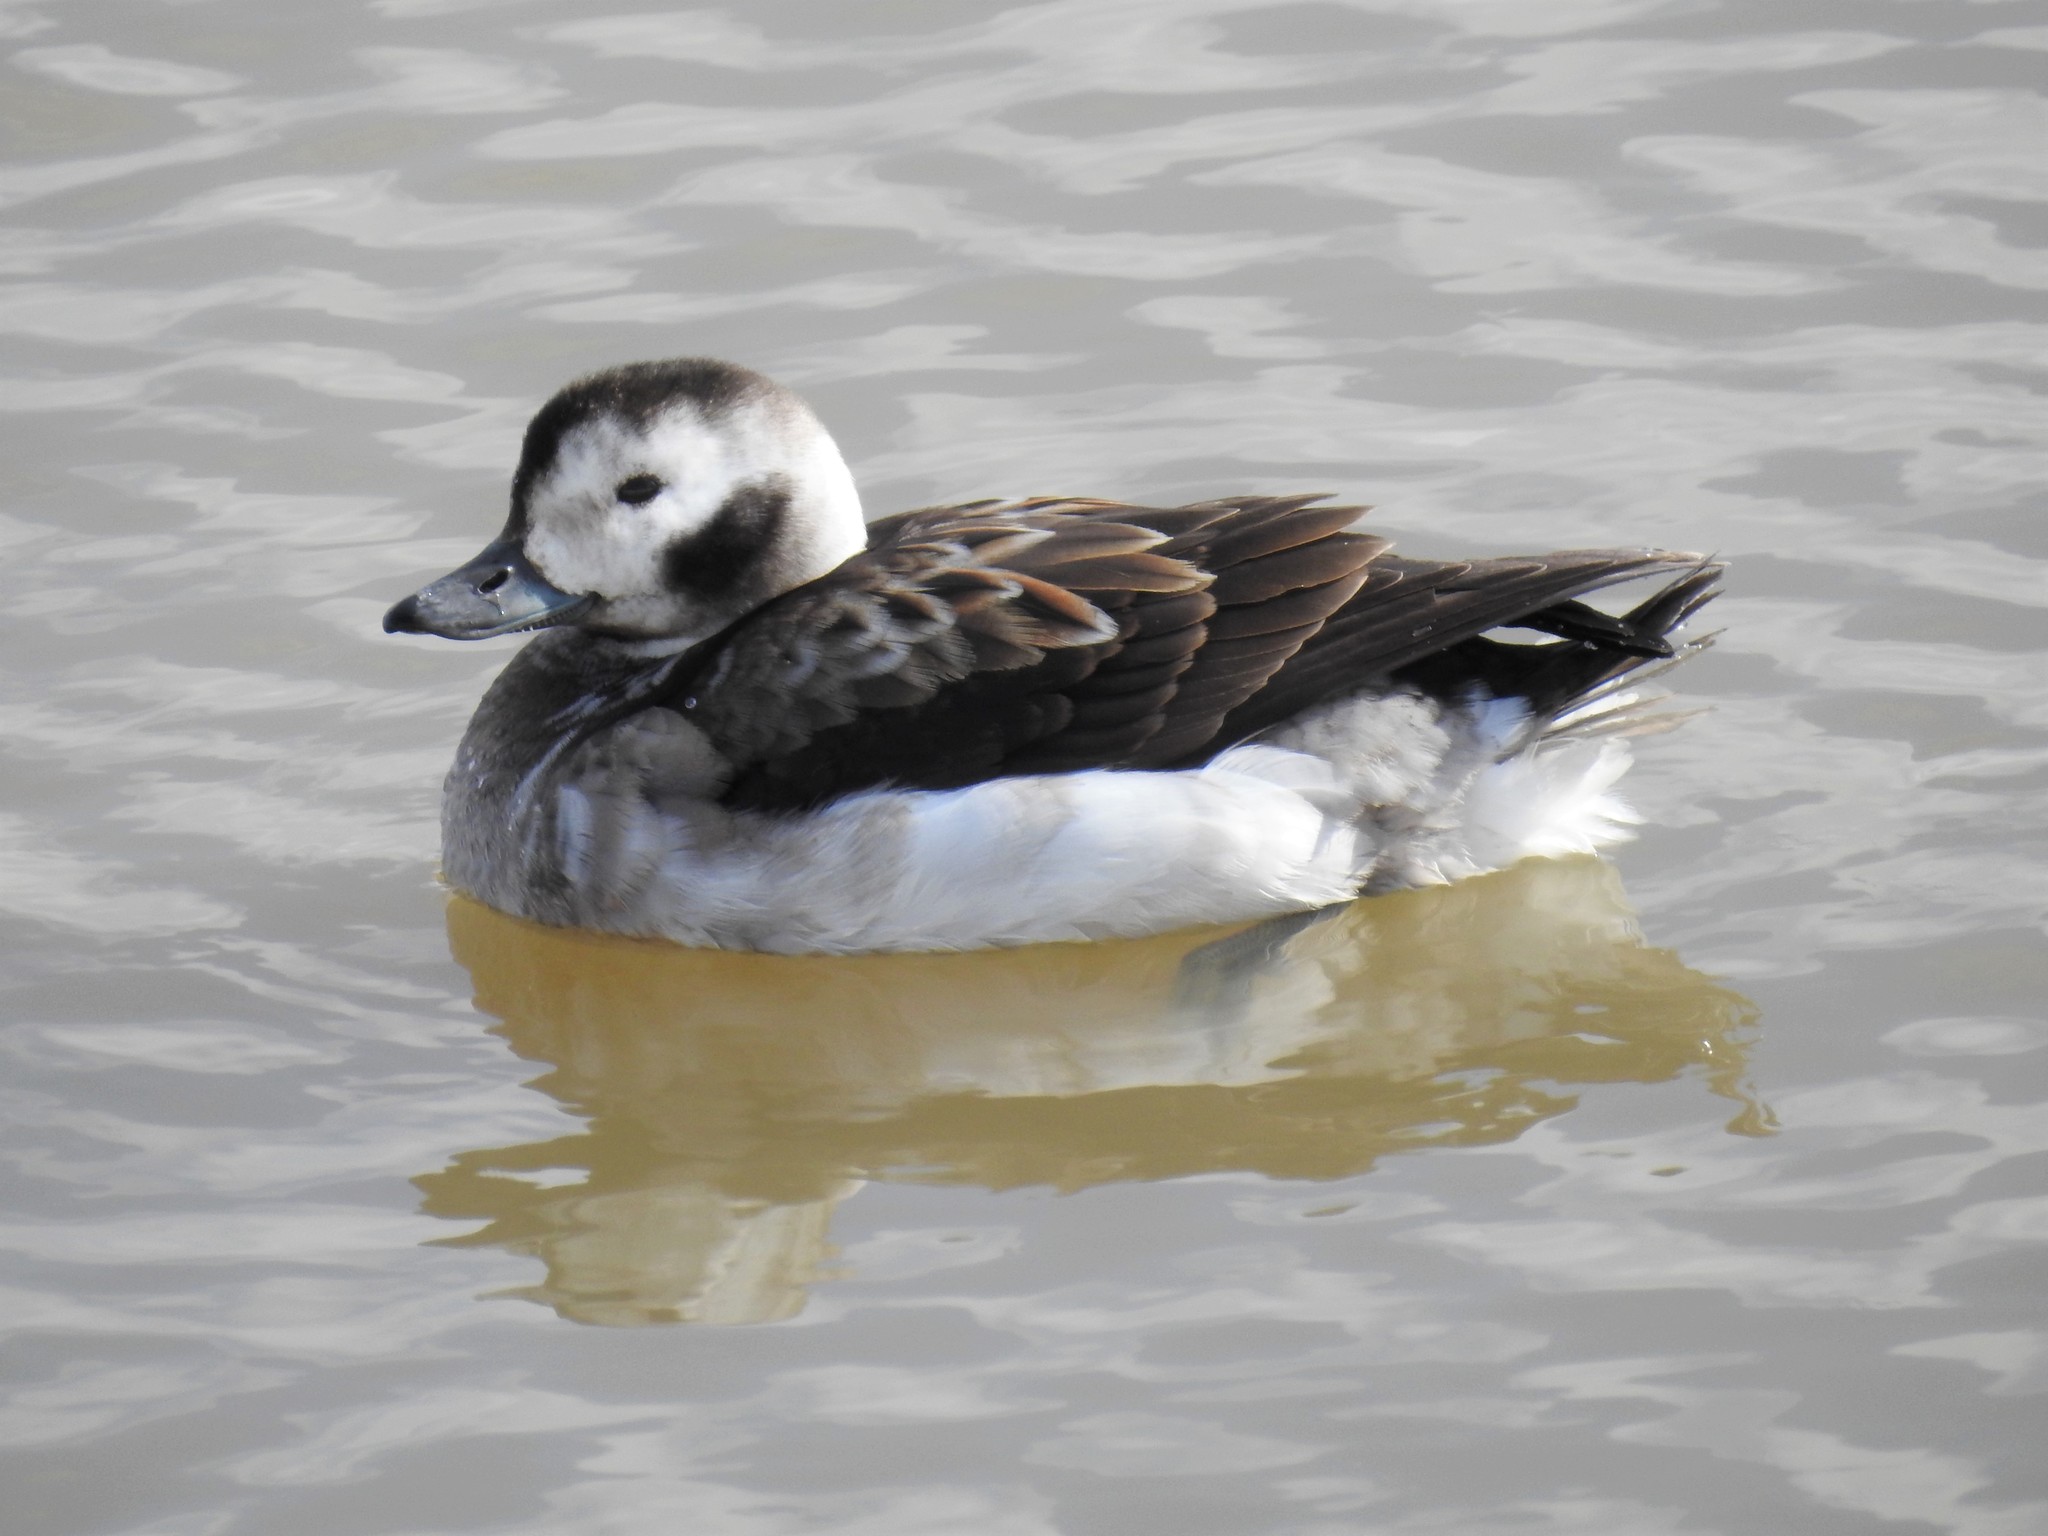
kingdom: Animalia
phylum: Chordata
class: Aves
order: Anseriformes
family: Anatidae
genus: Clangula
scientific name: Clangula hyemalis
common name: Long-tailed duck
